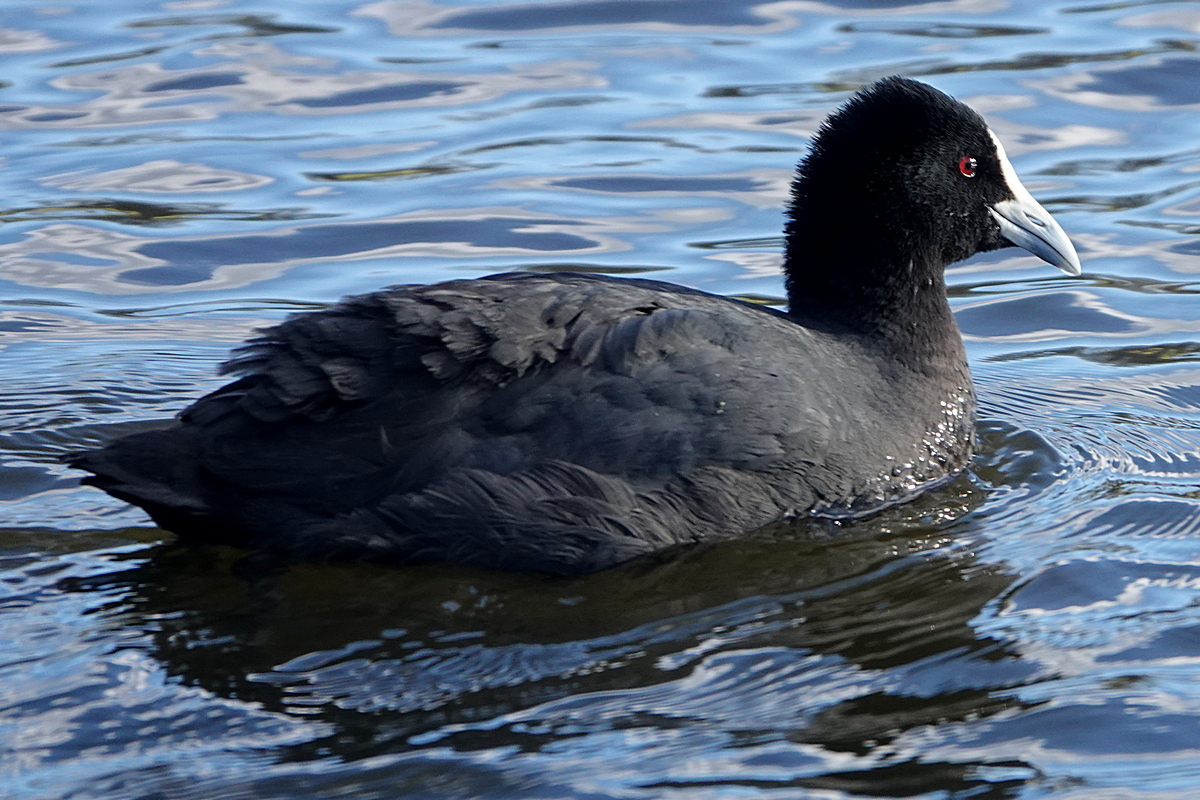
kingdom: Animalia
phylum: Chordata
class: Aves
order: Gruiformes
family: Rallidae
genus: Fulica
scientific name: Fulica atra
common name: Eurasian coot
